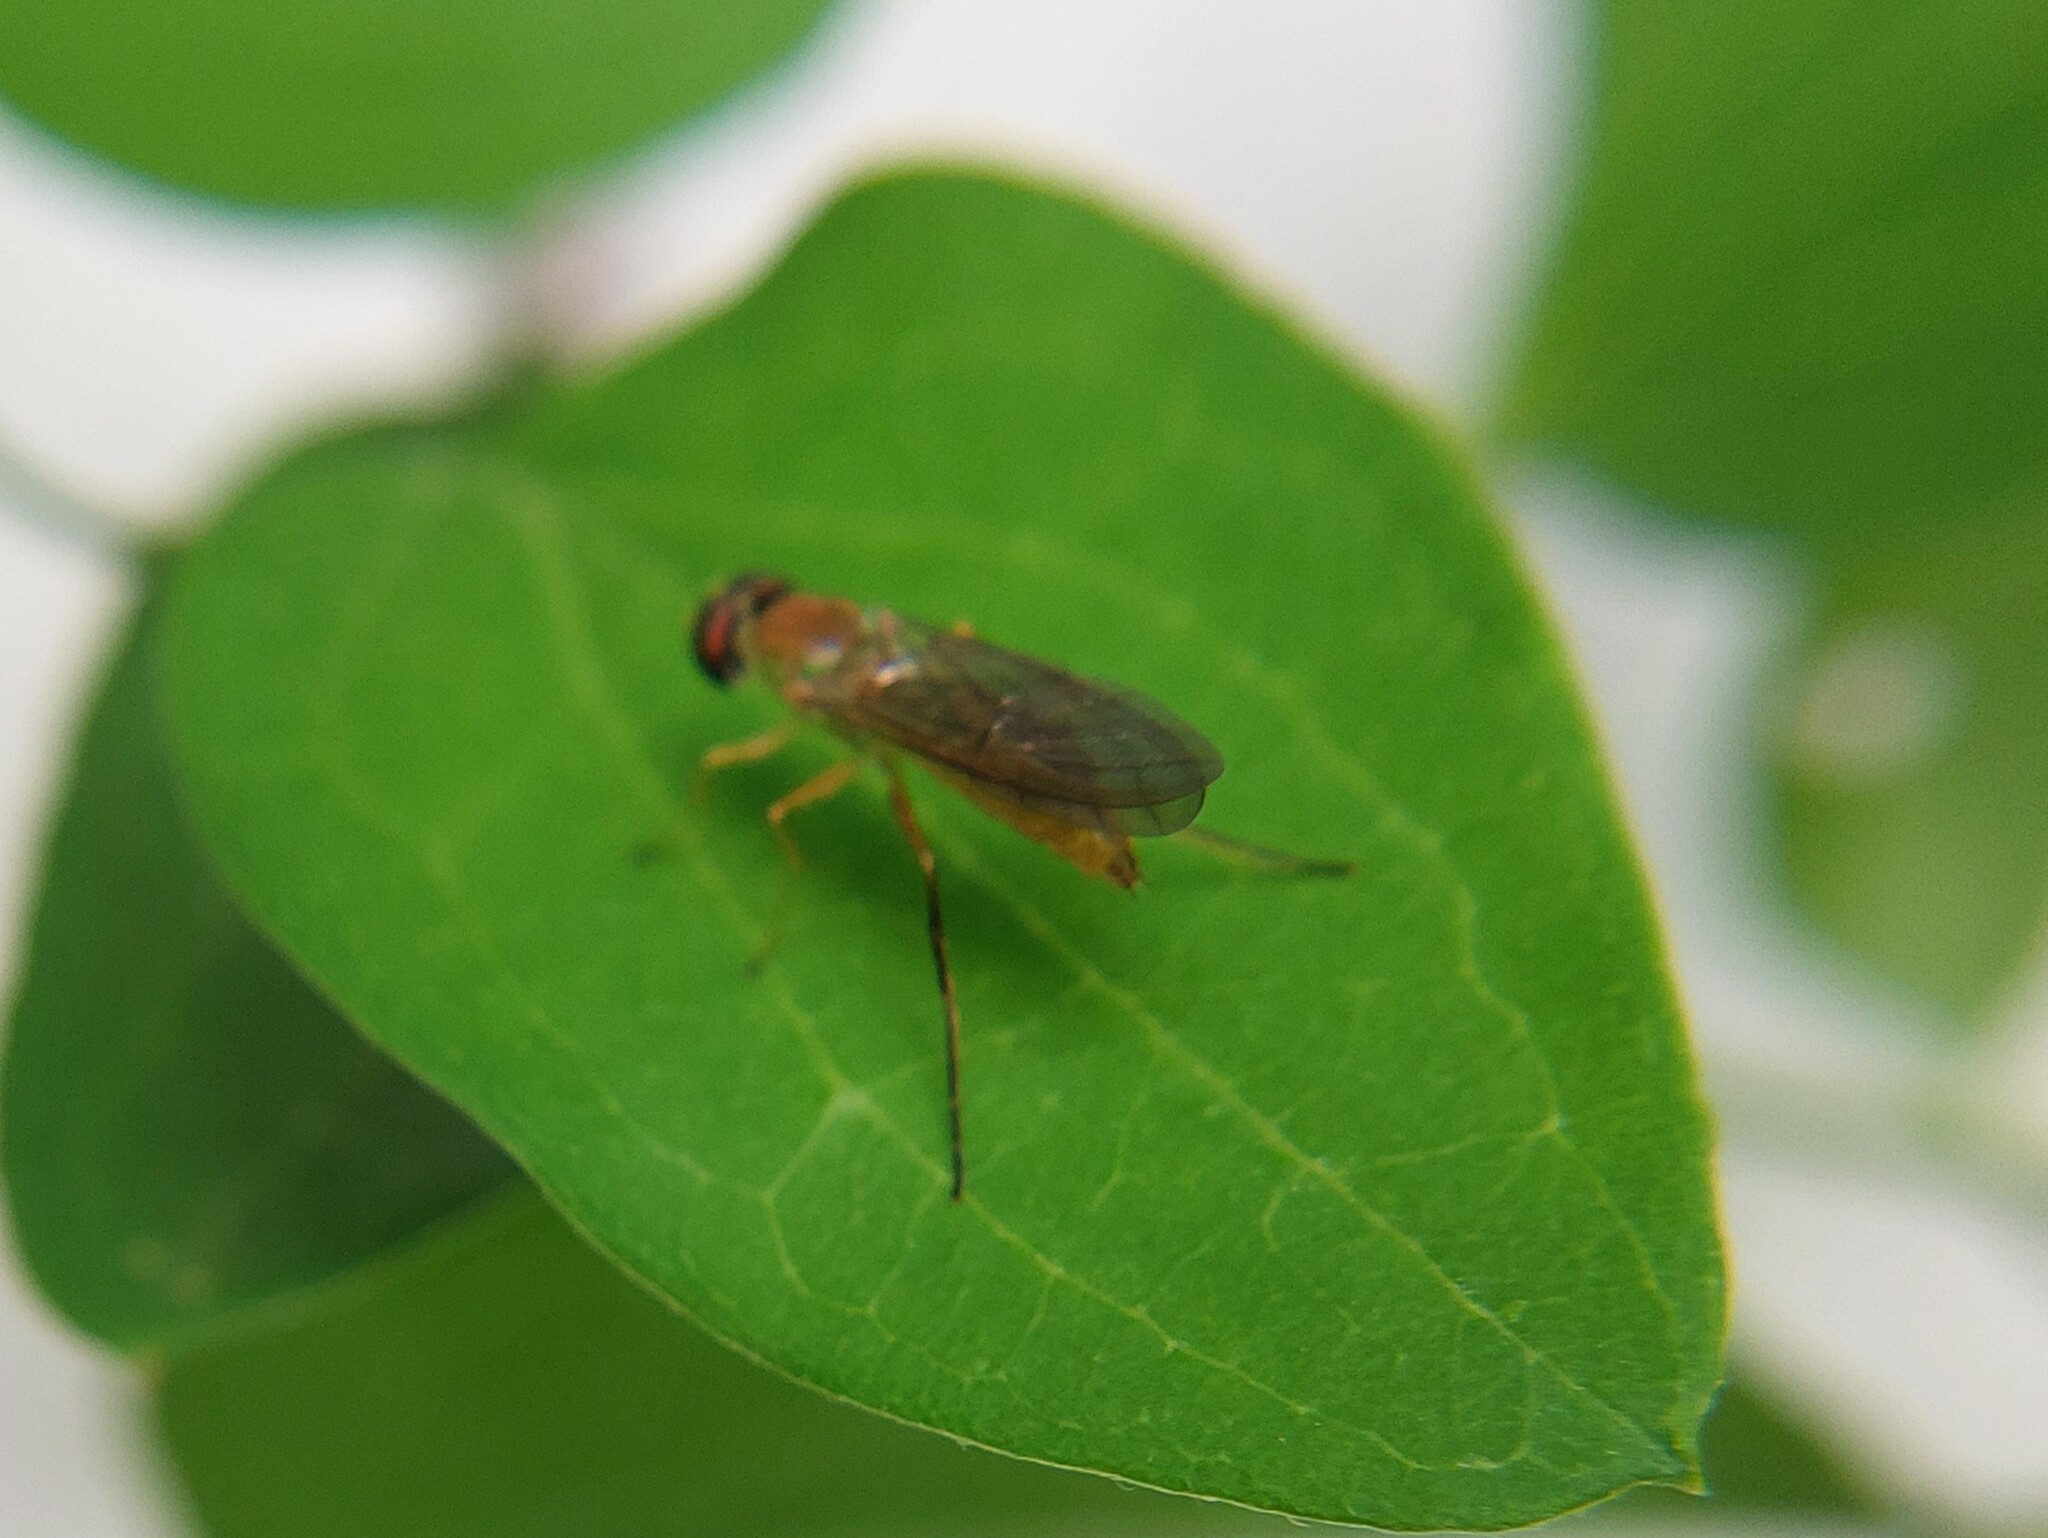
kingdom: Animalia
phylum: Arthropoda
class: Insecta
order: Diptera
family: Stratiomyidae
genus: Ptecticus
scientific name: Ptecticus trivittatus
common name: Compost fly
